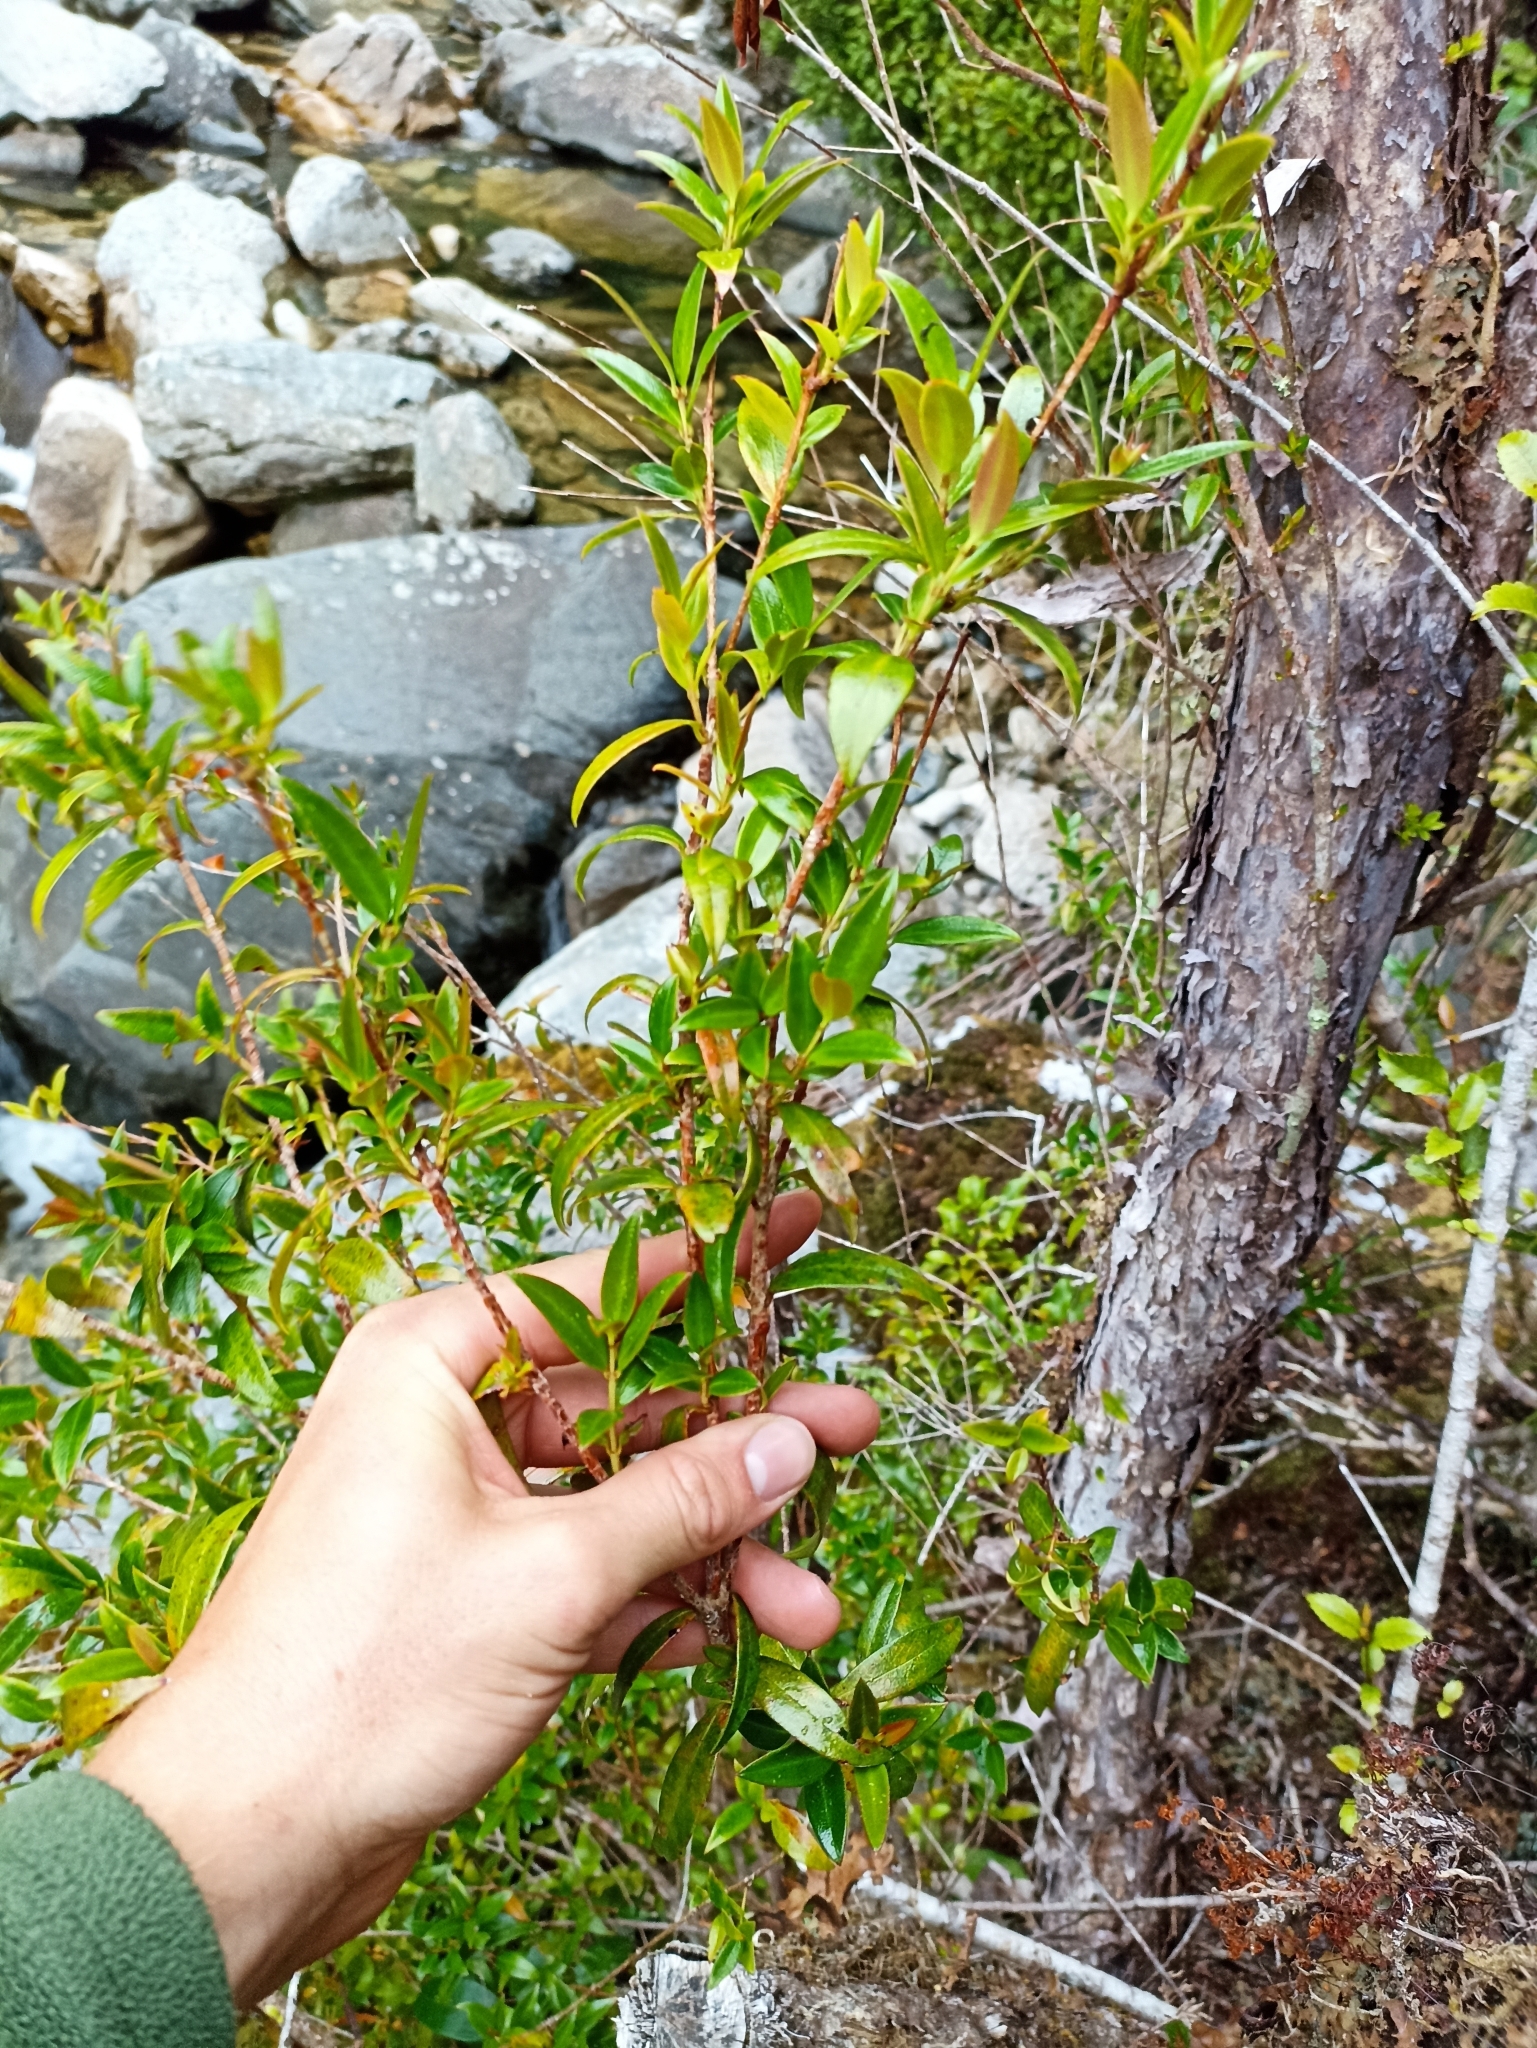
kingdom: Plantae
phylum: Tracheophyta
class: Magnoliopsida
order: Myrtales
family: Myrtaceae
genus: Metrosideros
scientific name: Metrosideros umbellata
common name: Southern rata
